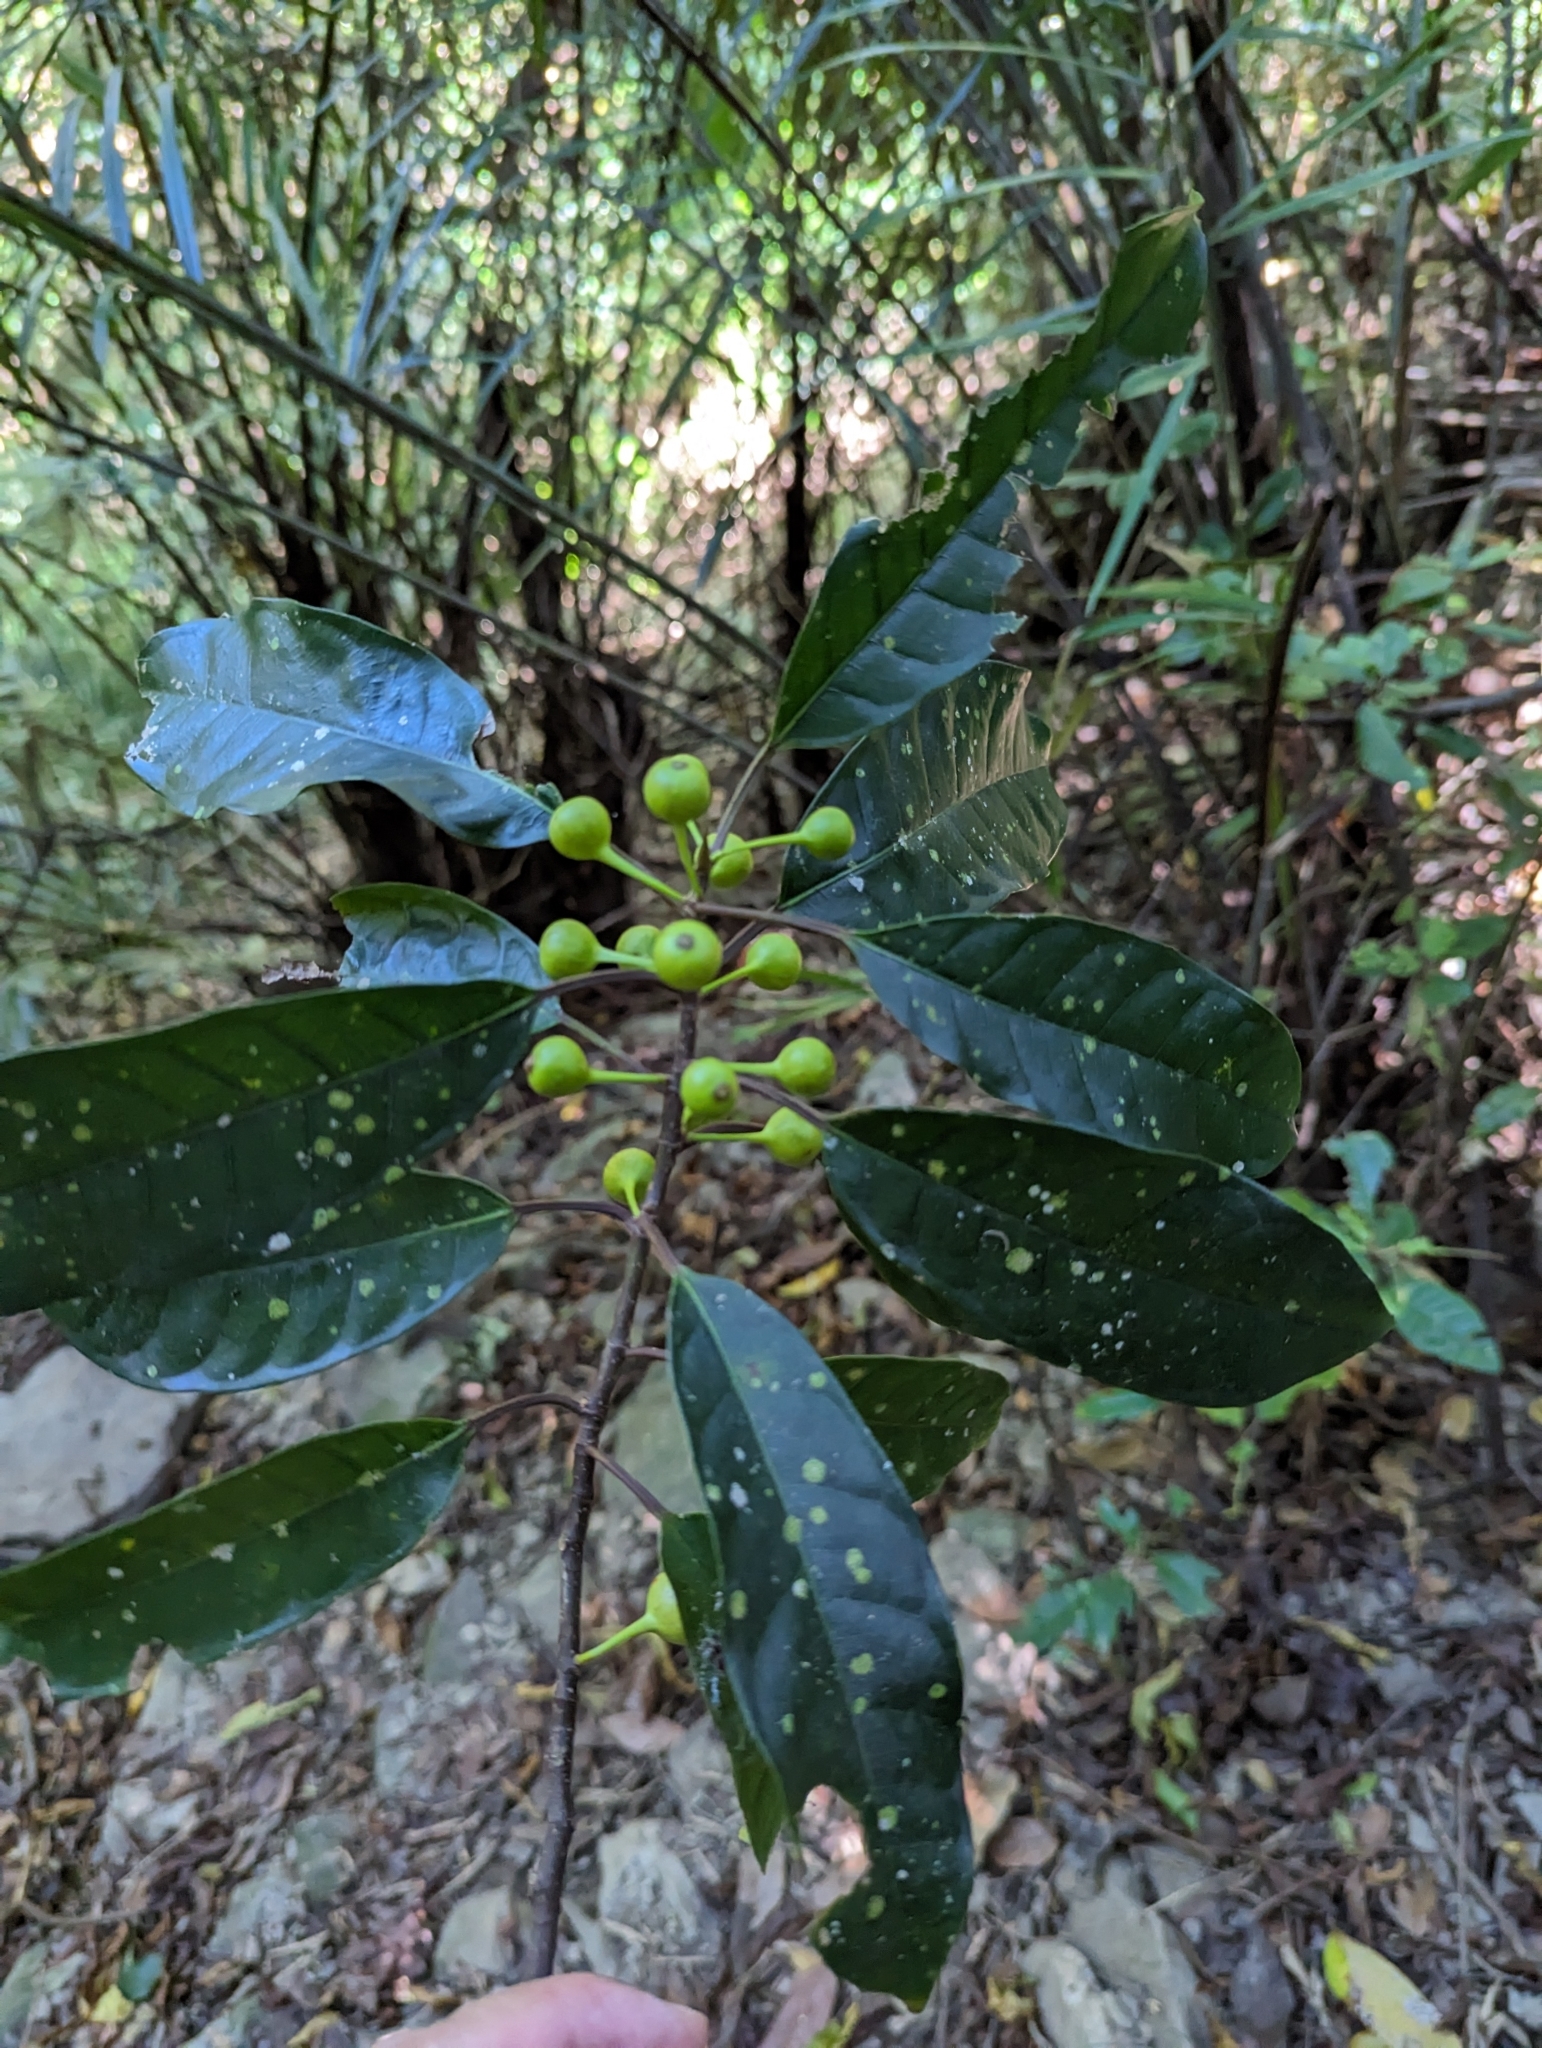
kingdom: Plantae
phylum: Tracheophyta
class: Magnoliopsida
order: Rosales
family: Moraceae
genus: Ficus
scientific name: Ficus nervosa
